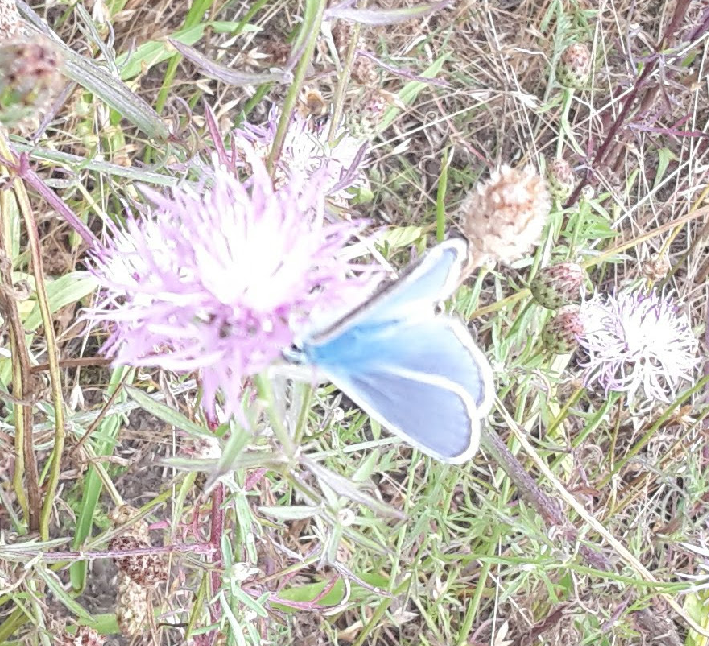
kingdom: Animalia
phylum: Arthropoda
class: Insecta
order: Lepidoptera
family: Lycaenidae
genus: Polyommatus
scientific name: Polyommatus icarus
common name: Common blue
